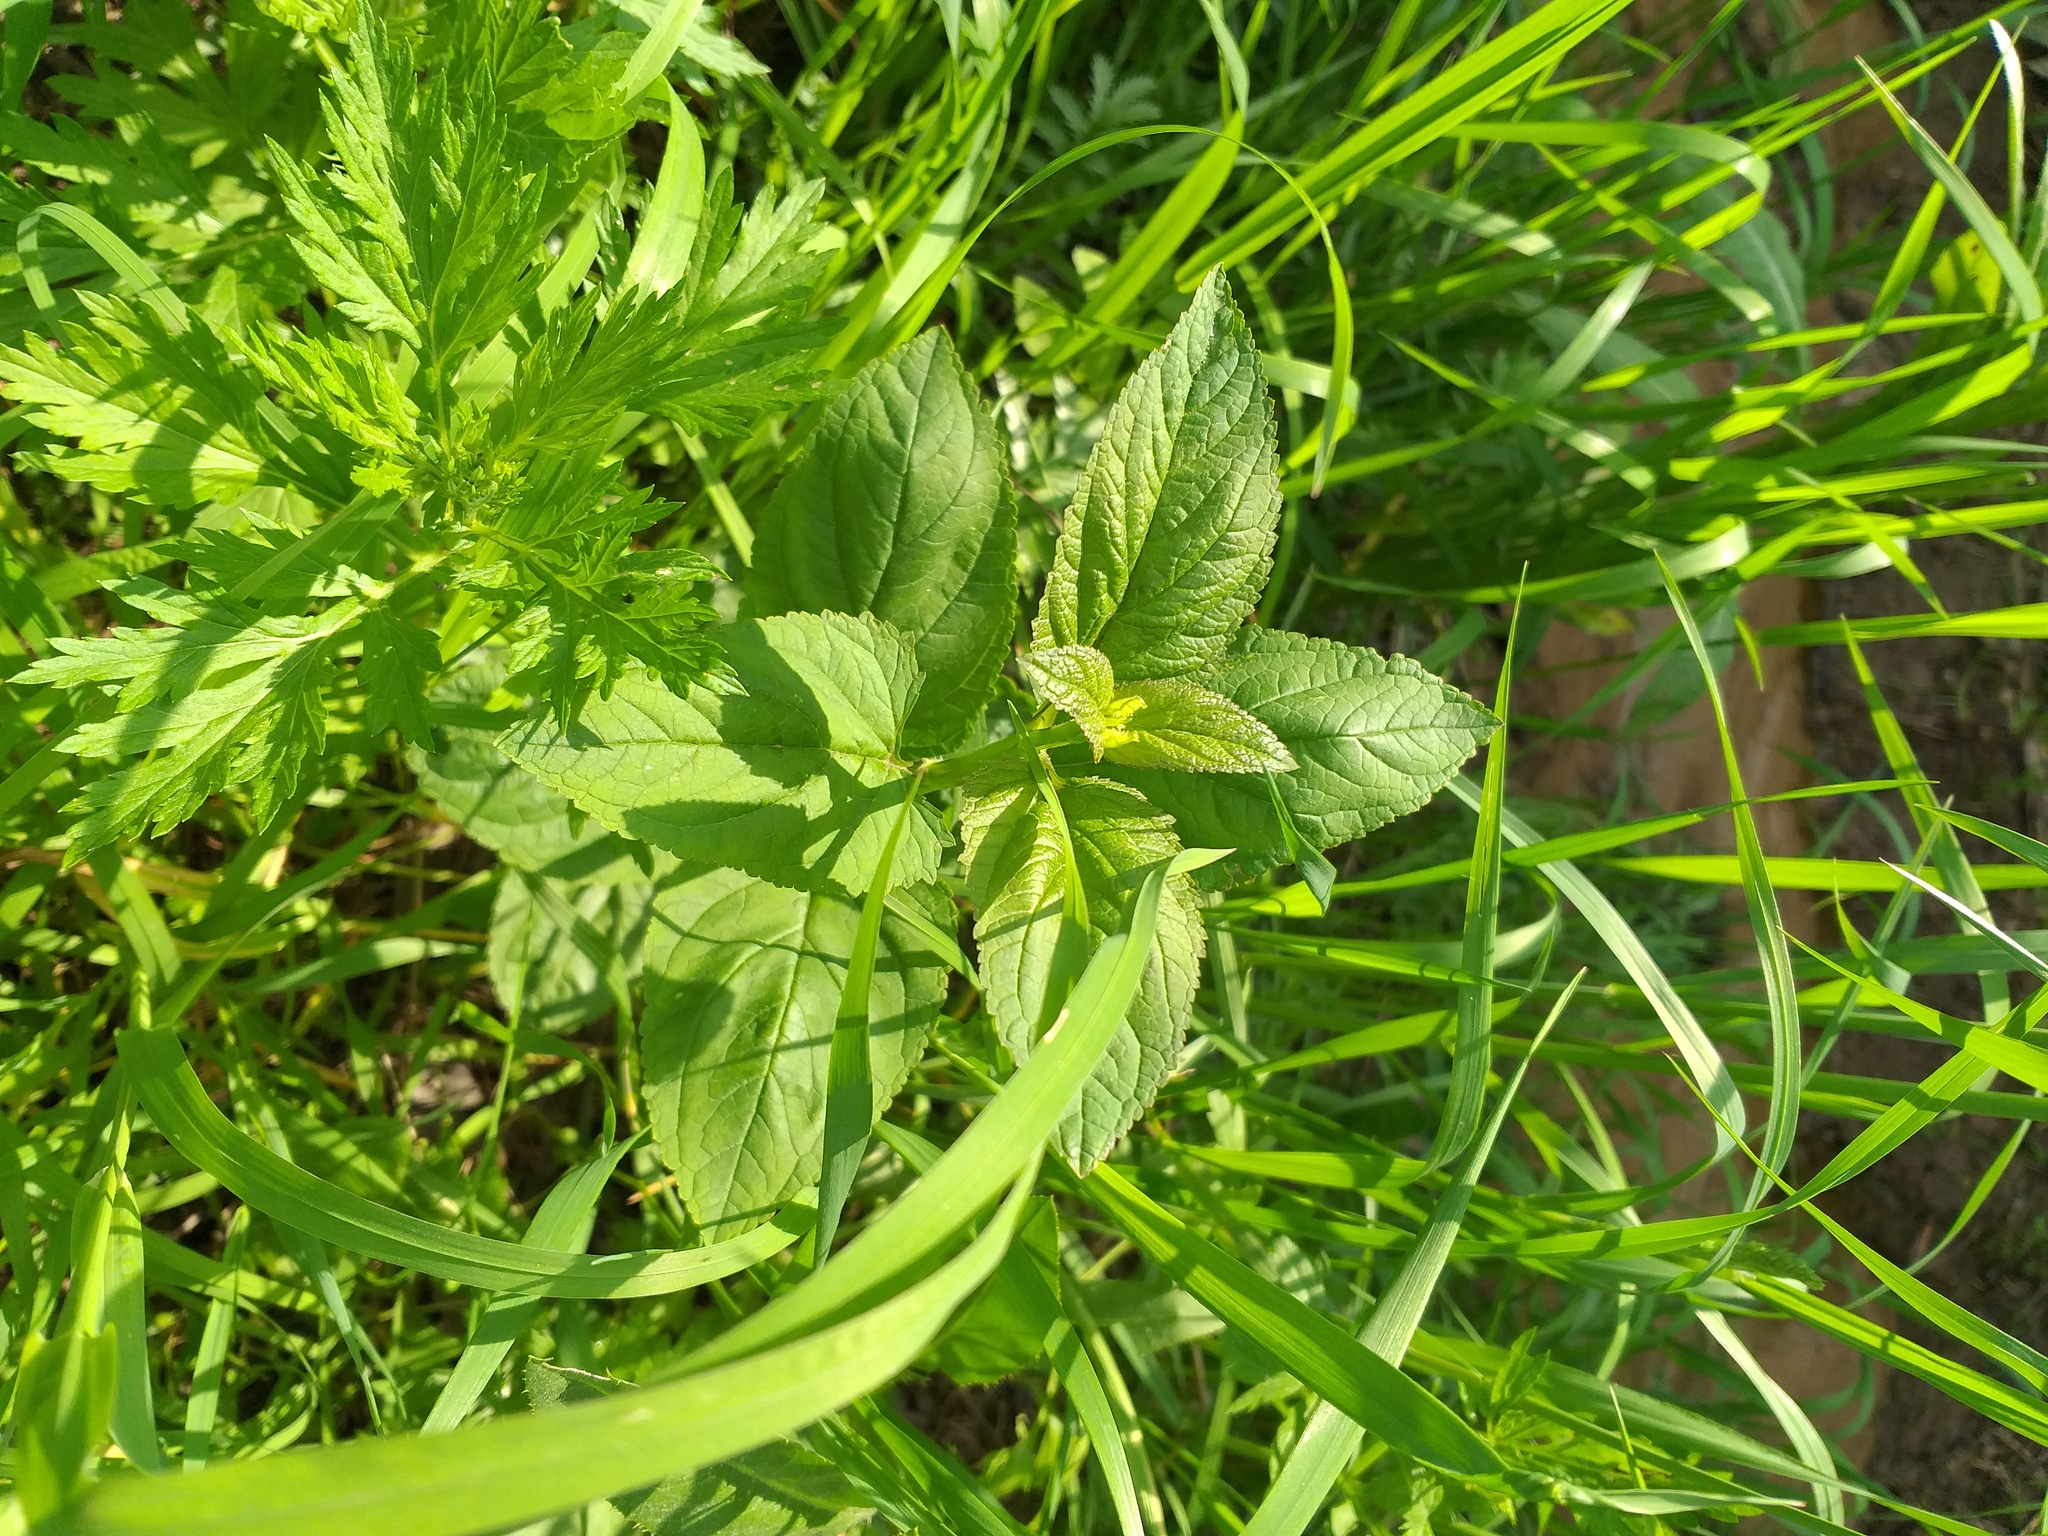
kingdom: Plantae
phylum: Tracheophyta
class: Magnoliopsida
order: Lamiales
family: Scrophulariaceae
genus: Scrophularia
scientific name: Scrophularia nodosa
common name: Common figwort
